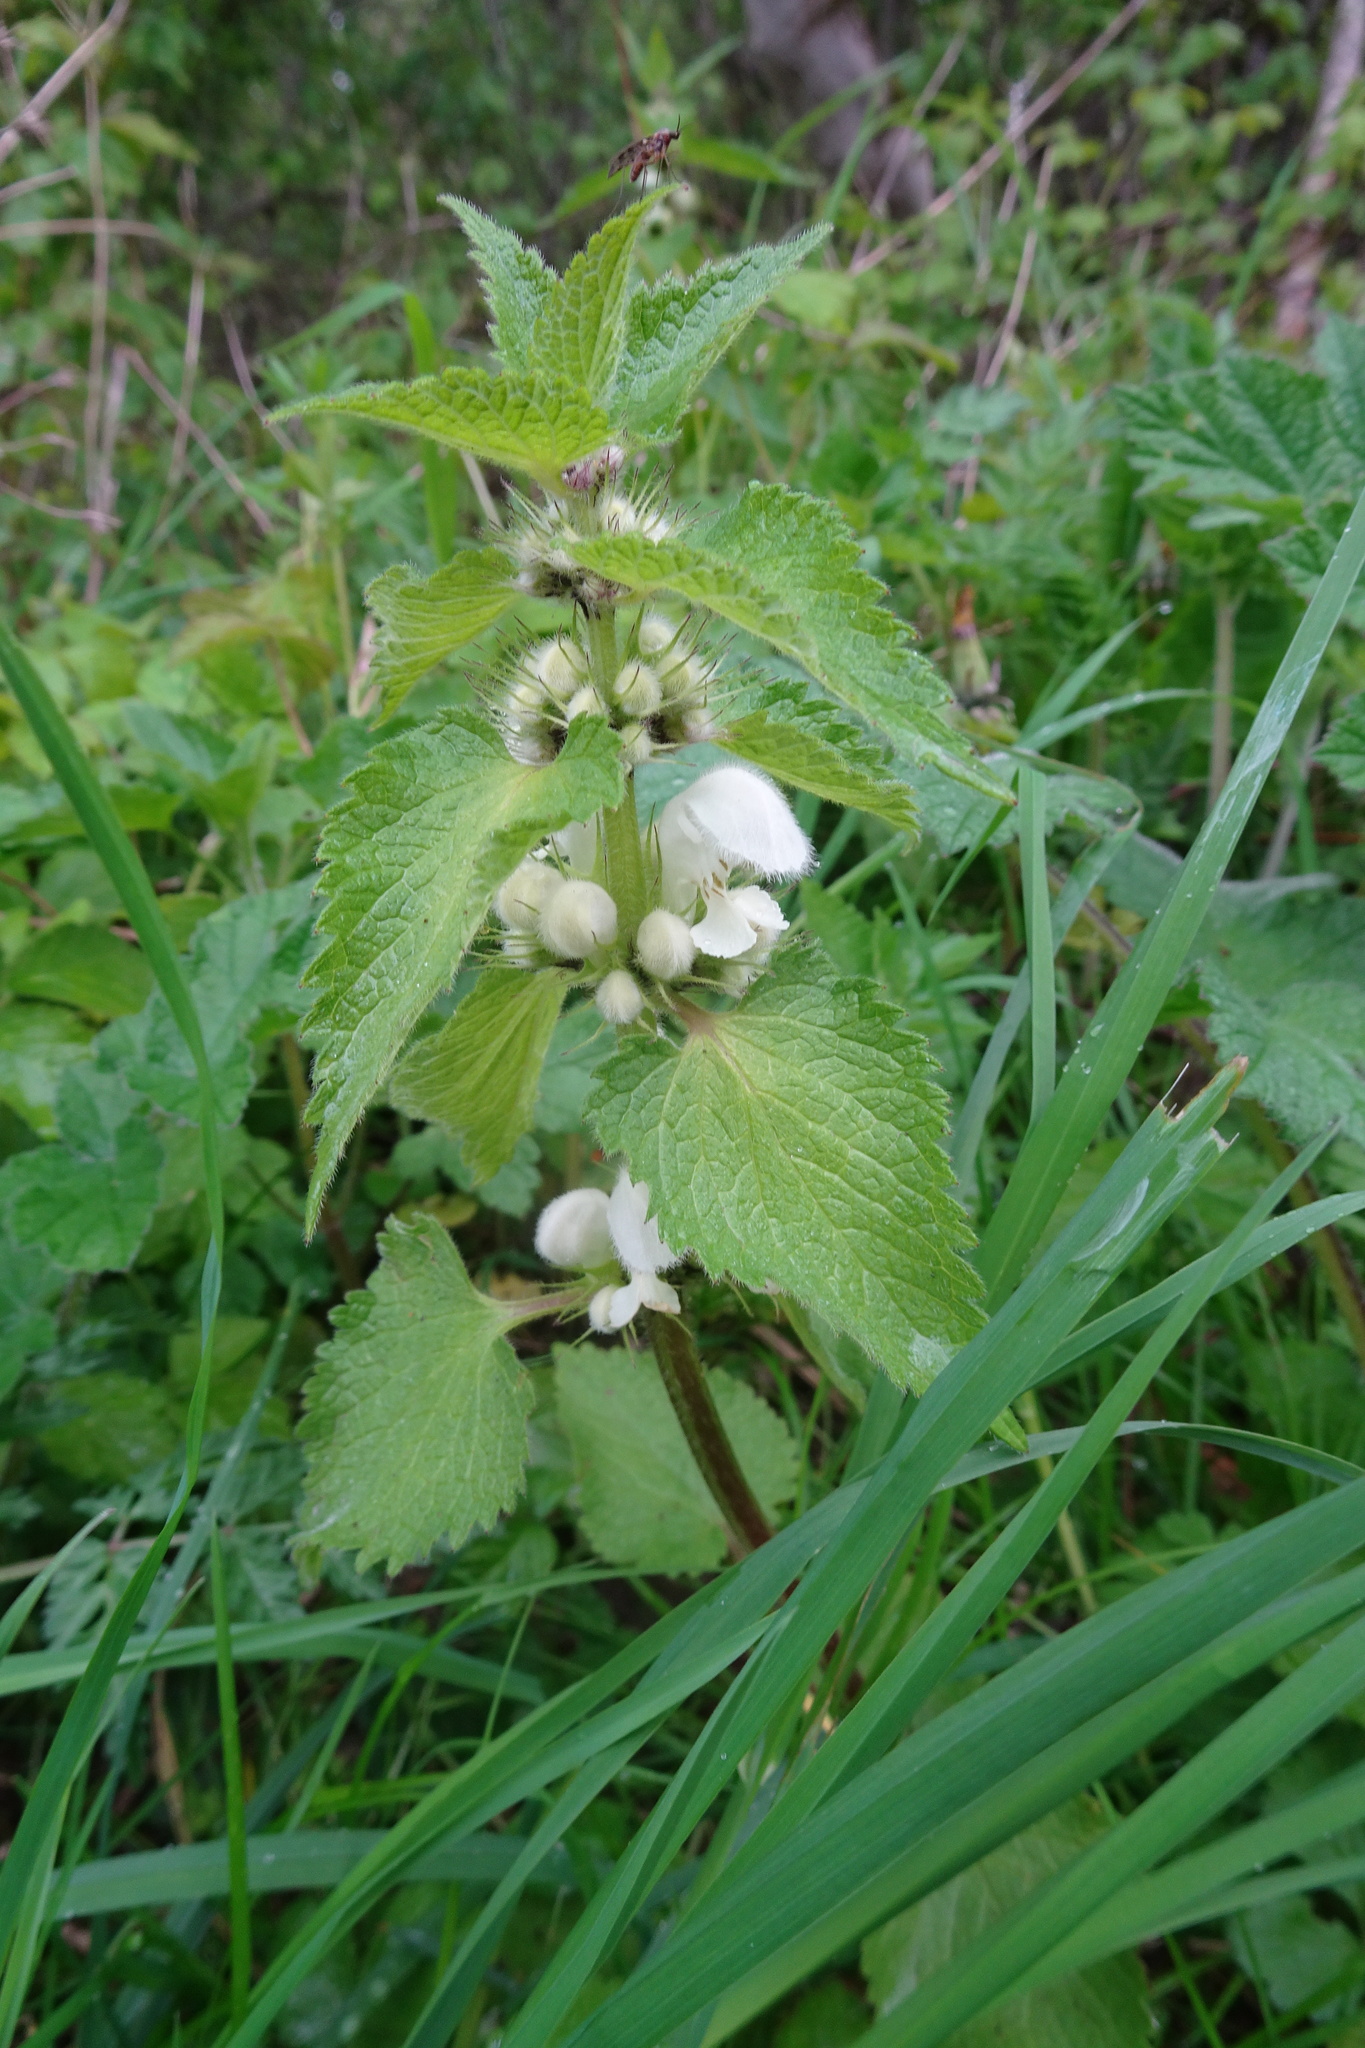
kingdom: Plantae
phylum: Tracheophyta
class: Magnoliopsida
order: Lamiales
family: Lamiaceae
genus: Lamium
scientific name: Lamium album
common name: White dead-nettle
